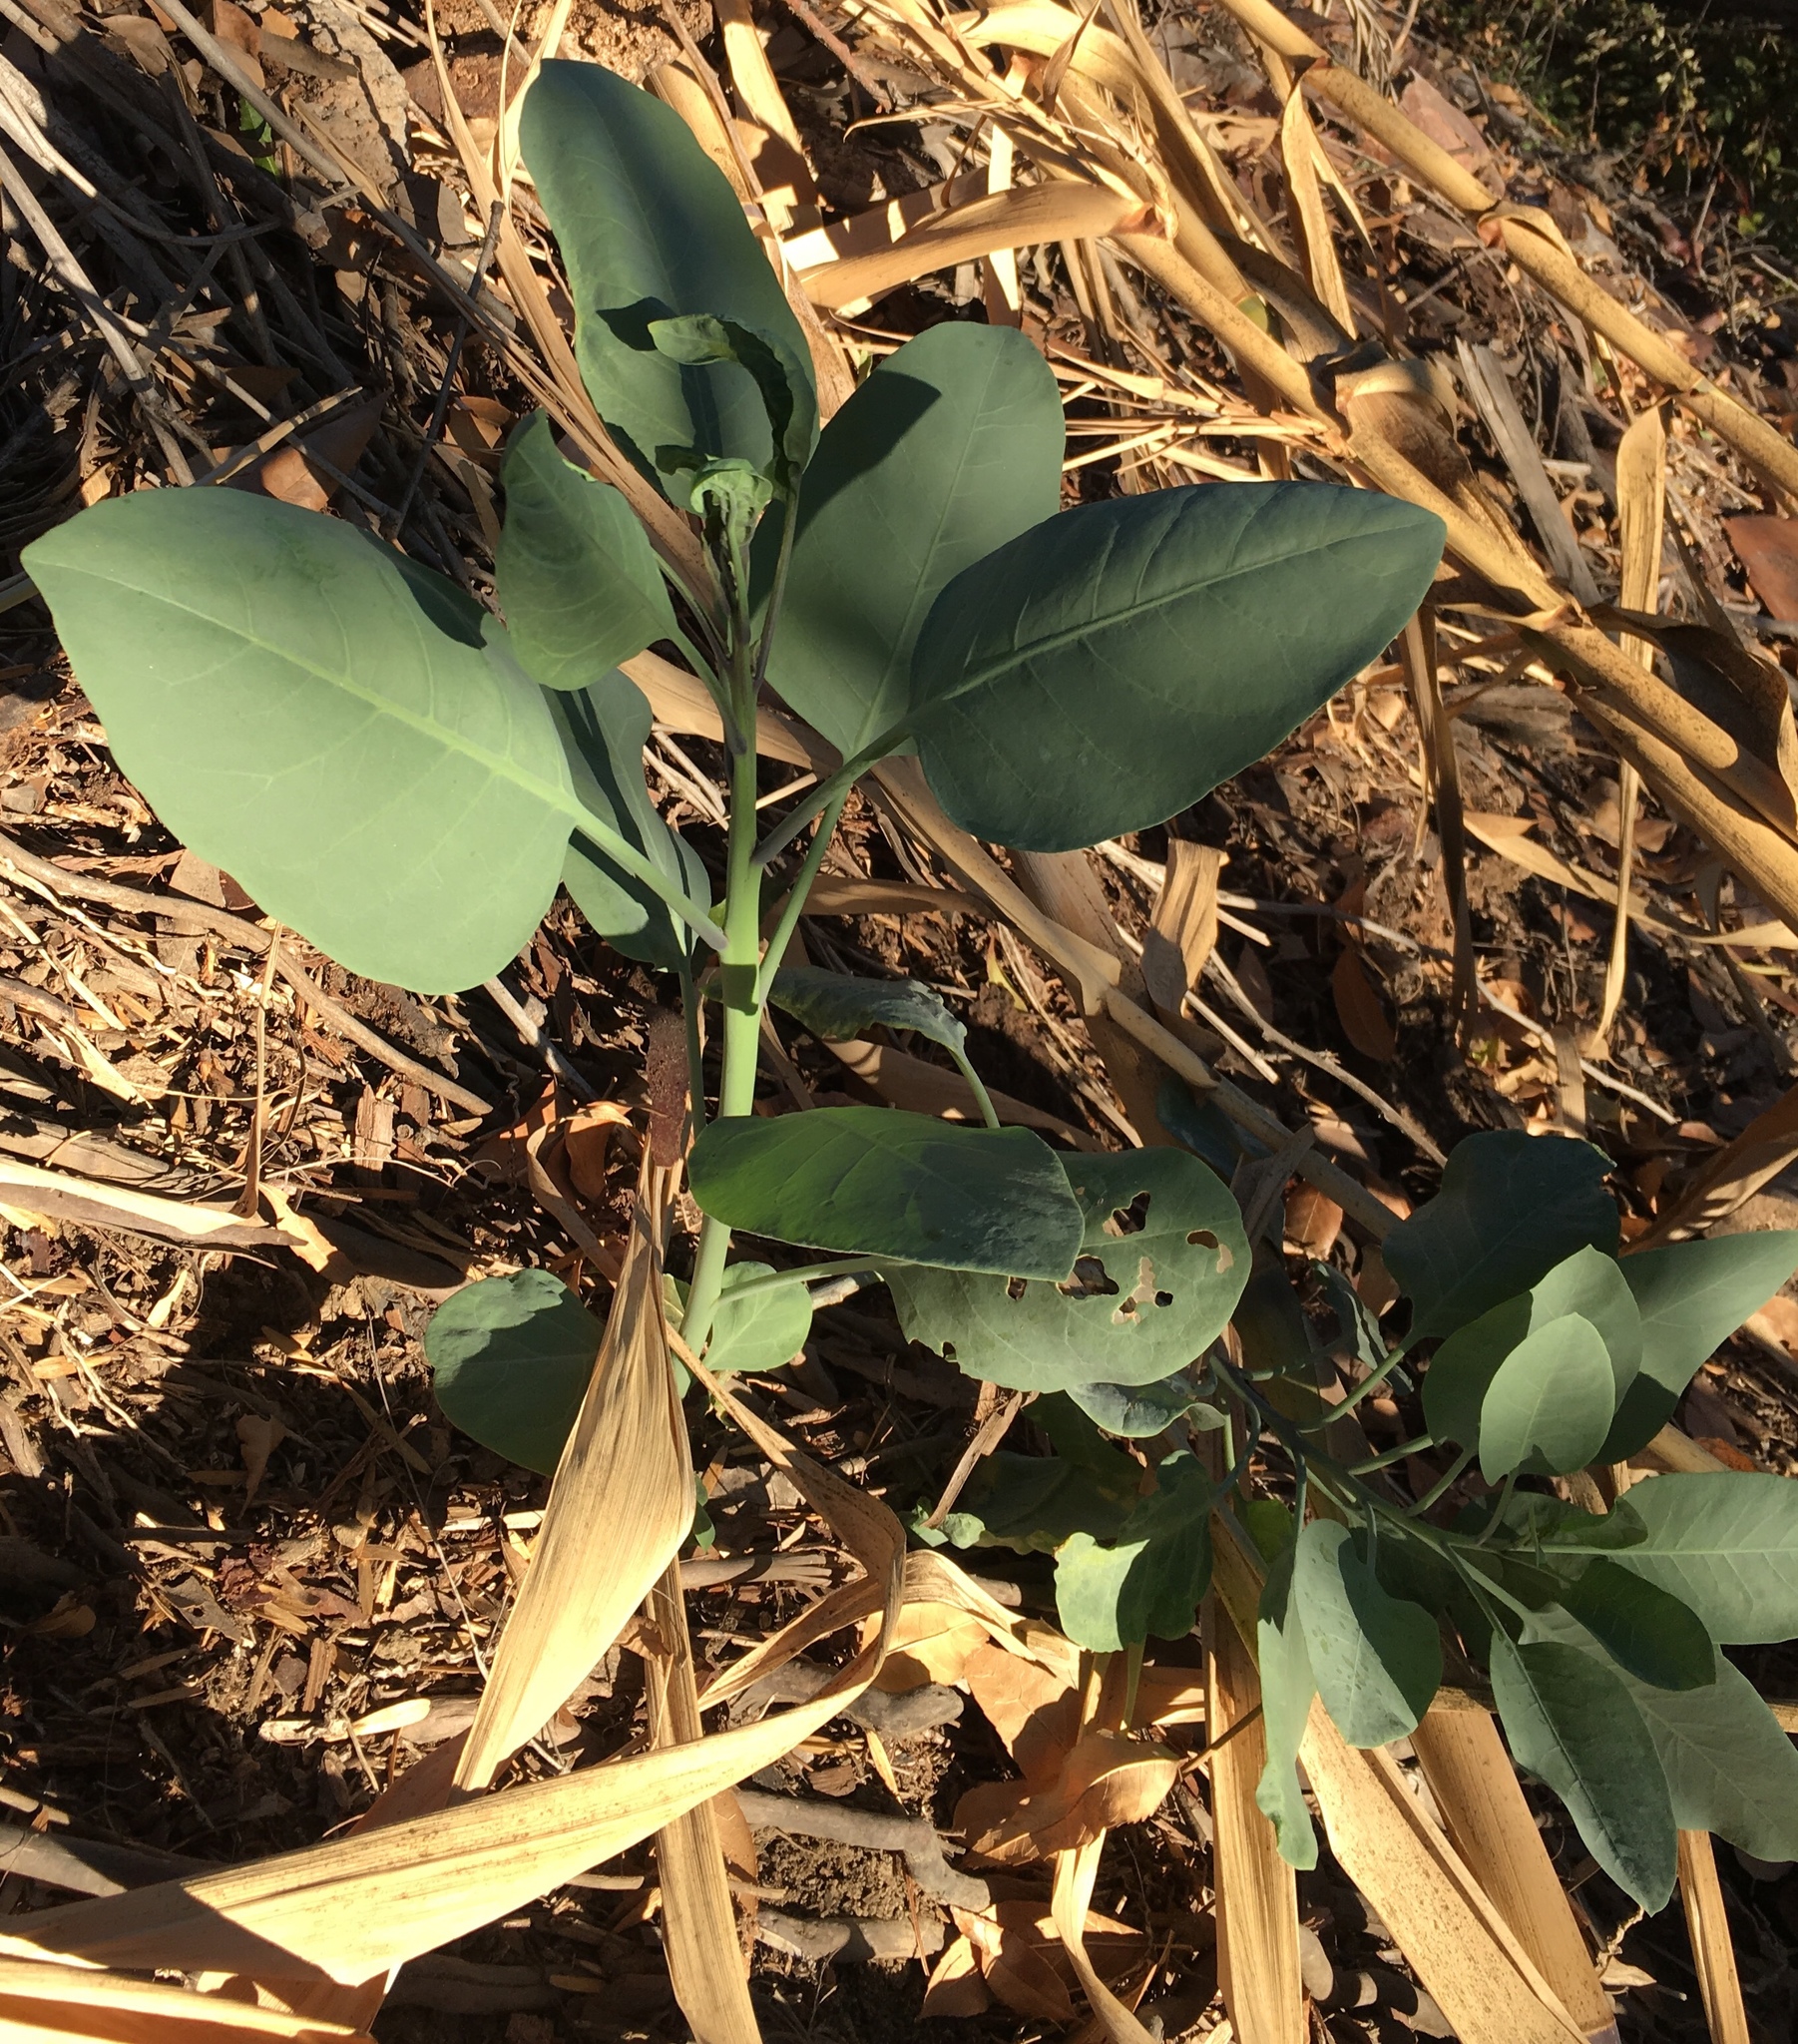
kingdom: Plantae
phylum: Tracheophyta
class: Magnoliopsida
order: Solanales
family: Solanaceae
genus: Nicotiana
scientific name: Nicotiana glauca
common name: Tree tobacco
